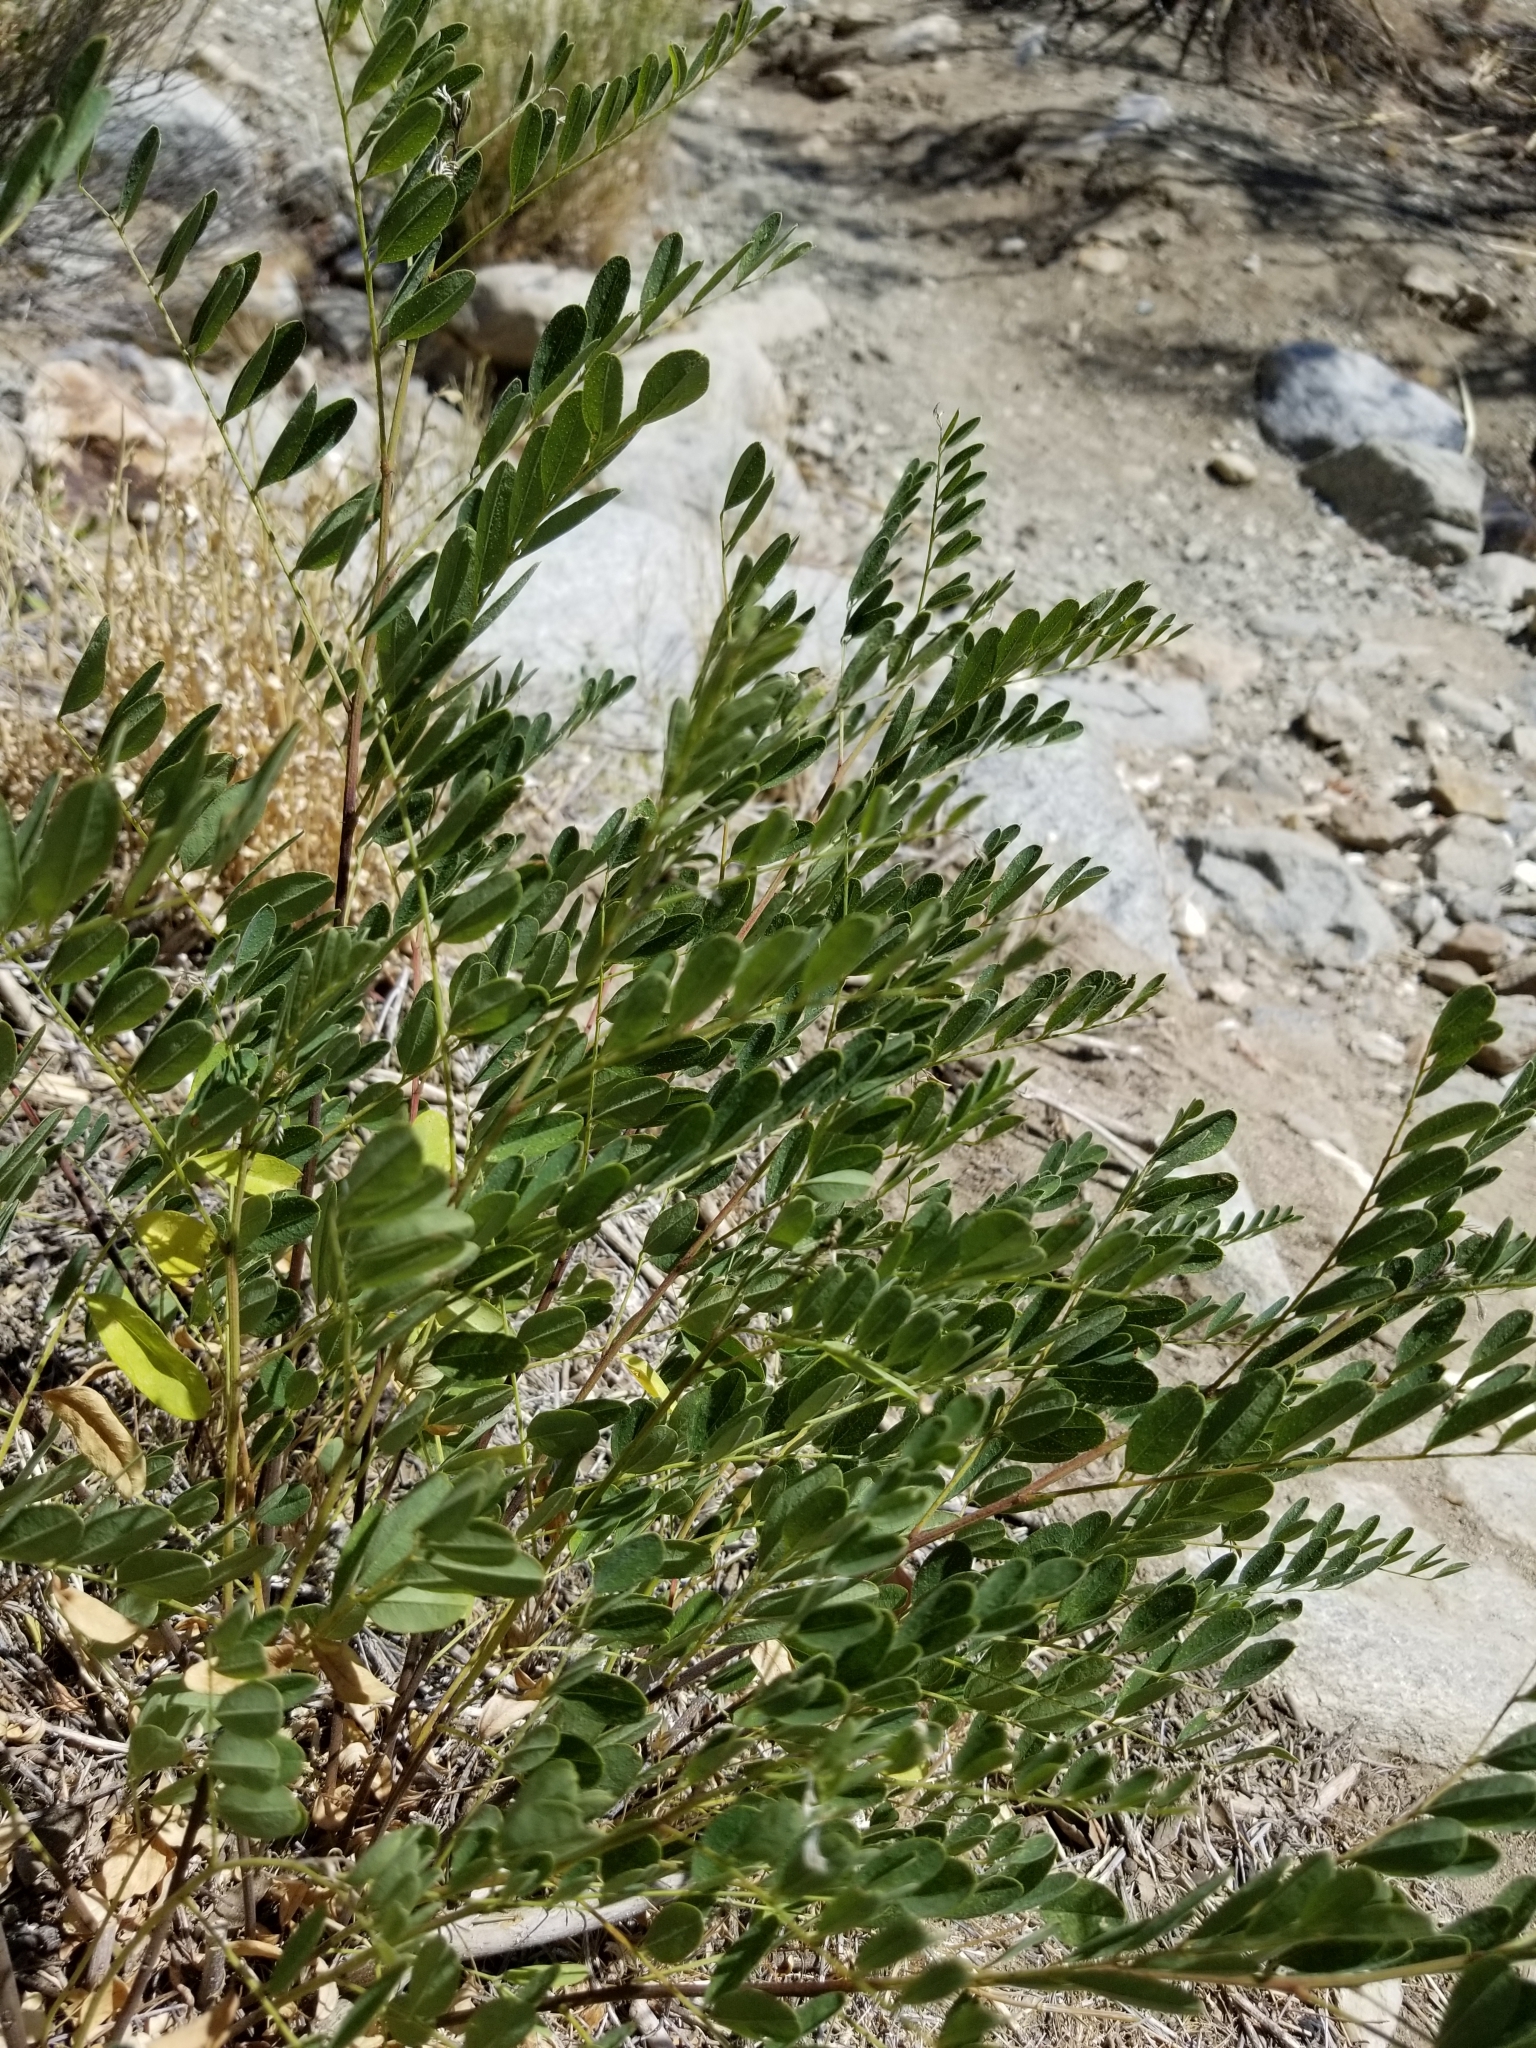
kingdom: Plantae
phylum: Tracheophyta
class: Magnoliopsida
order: Fabales
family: Fabaceae
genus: Amorpha
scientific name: Amorpha fruticosa
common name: False indigo
